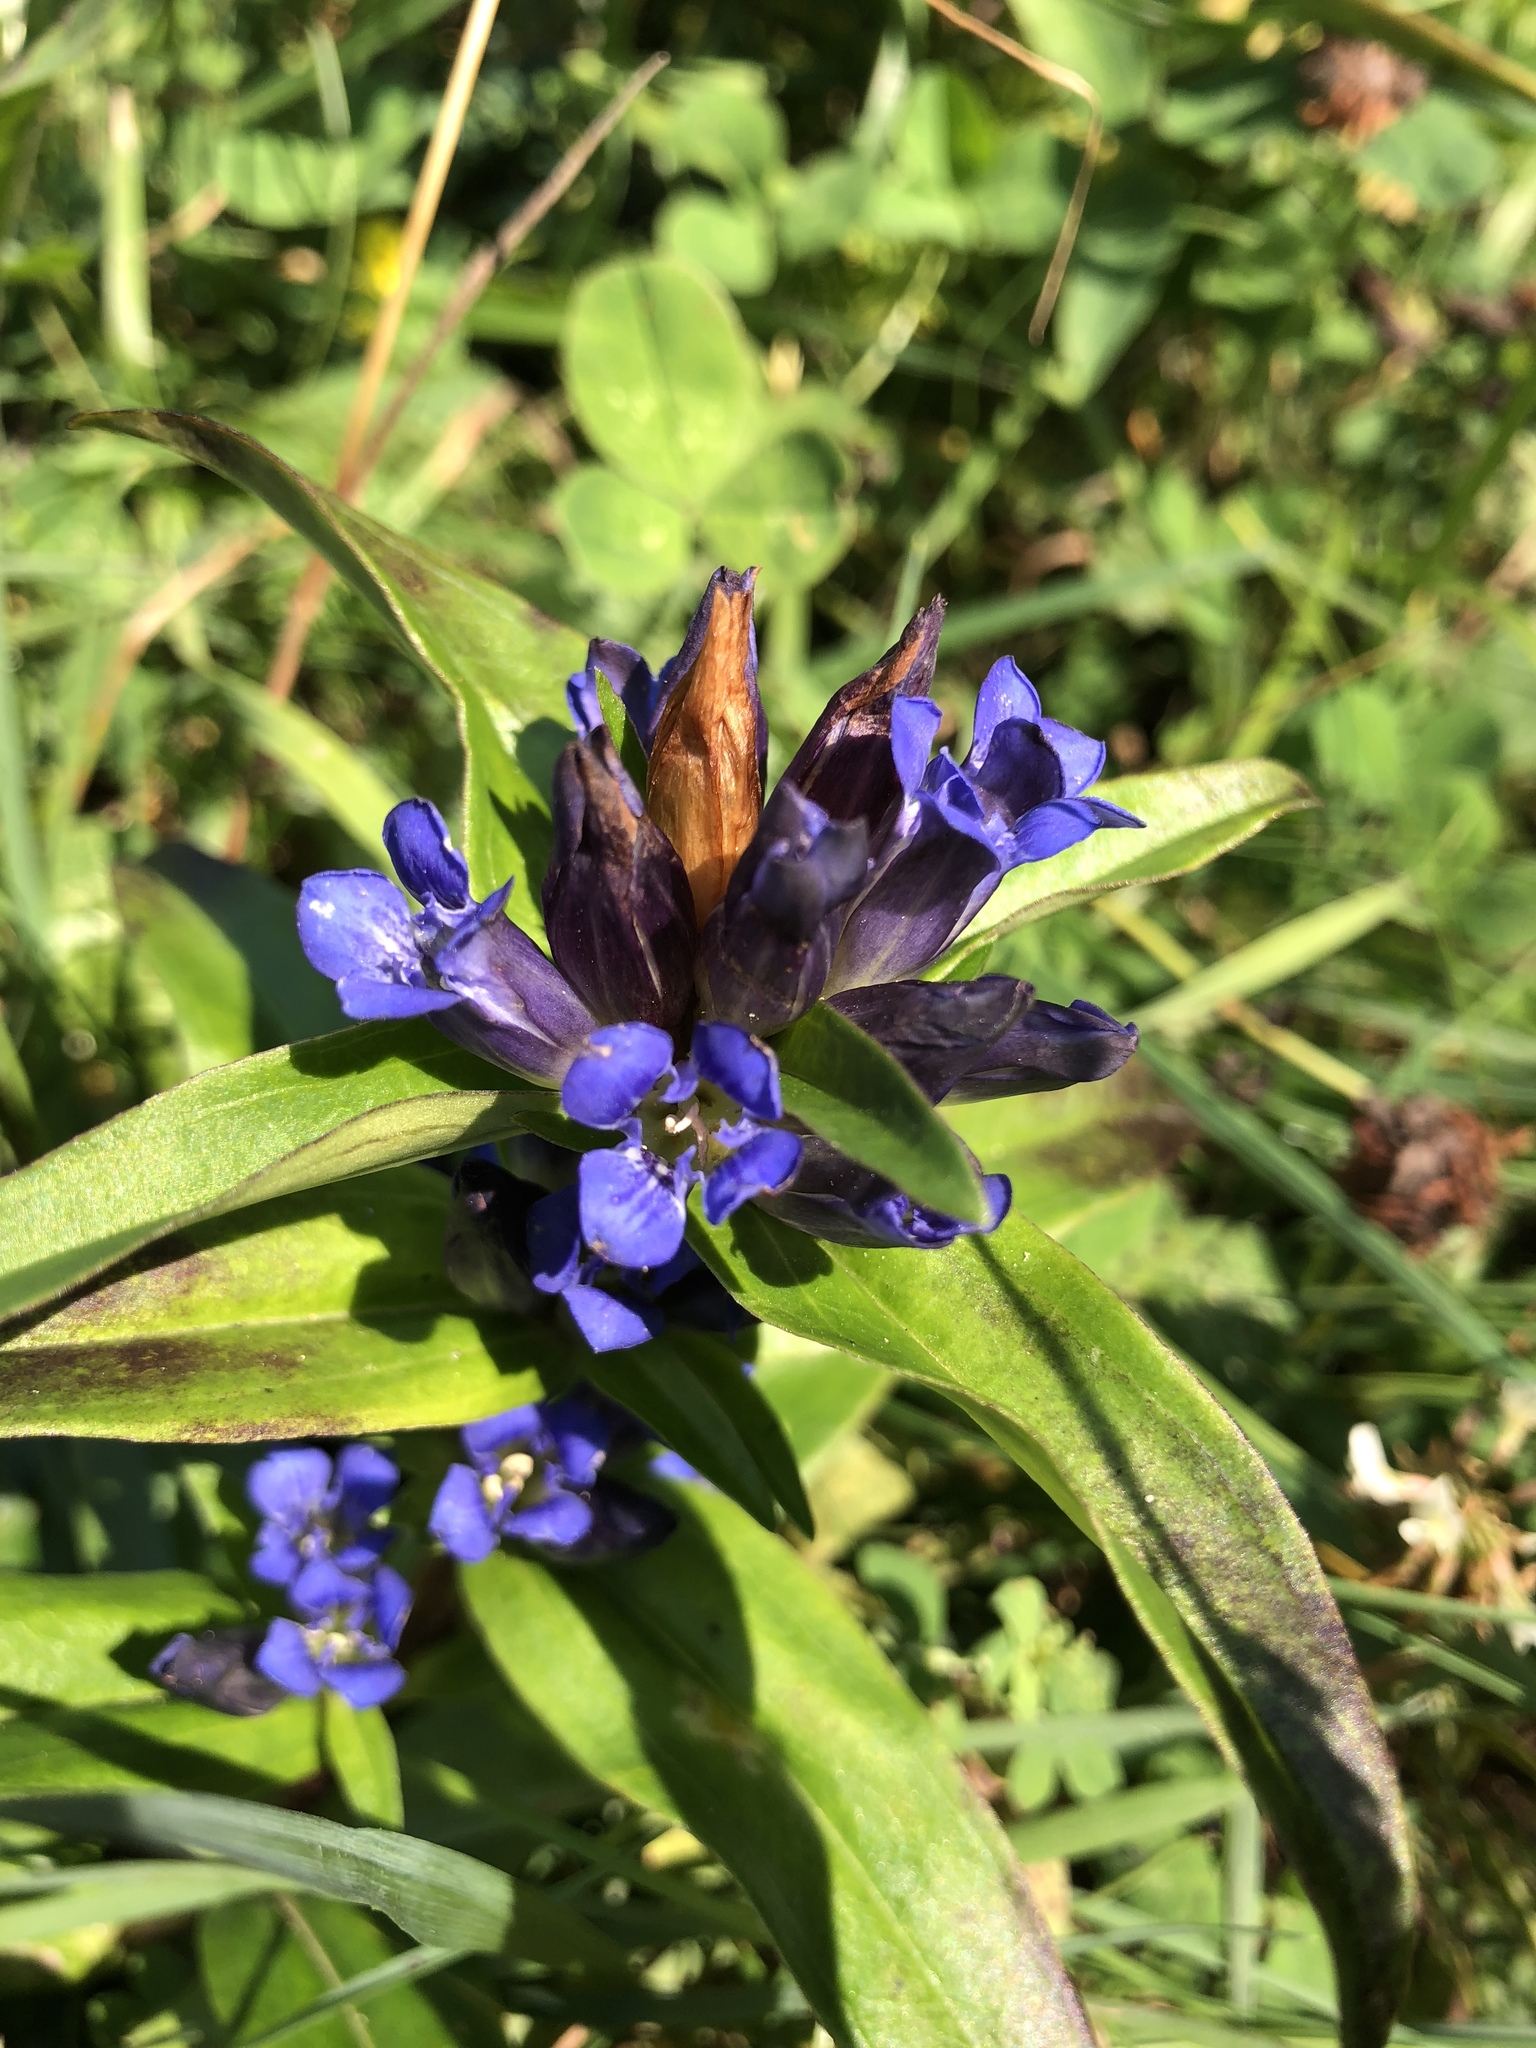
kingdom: Plantae
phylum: Tracheophyta
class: Magnoliopsida
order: Gentianales
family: Gentianaceae
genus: Gentiana
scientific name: Gentiana cruciata
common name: Cross gentian
